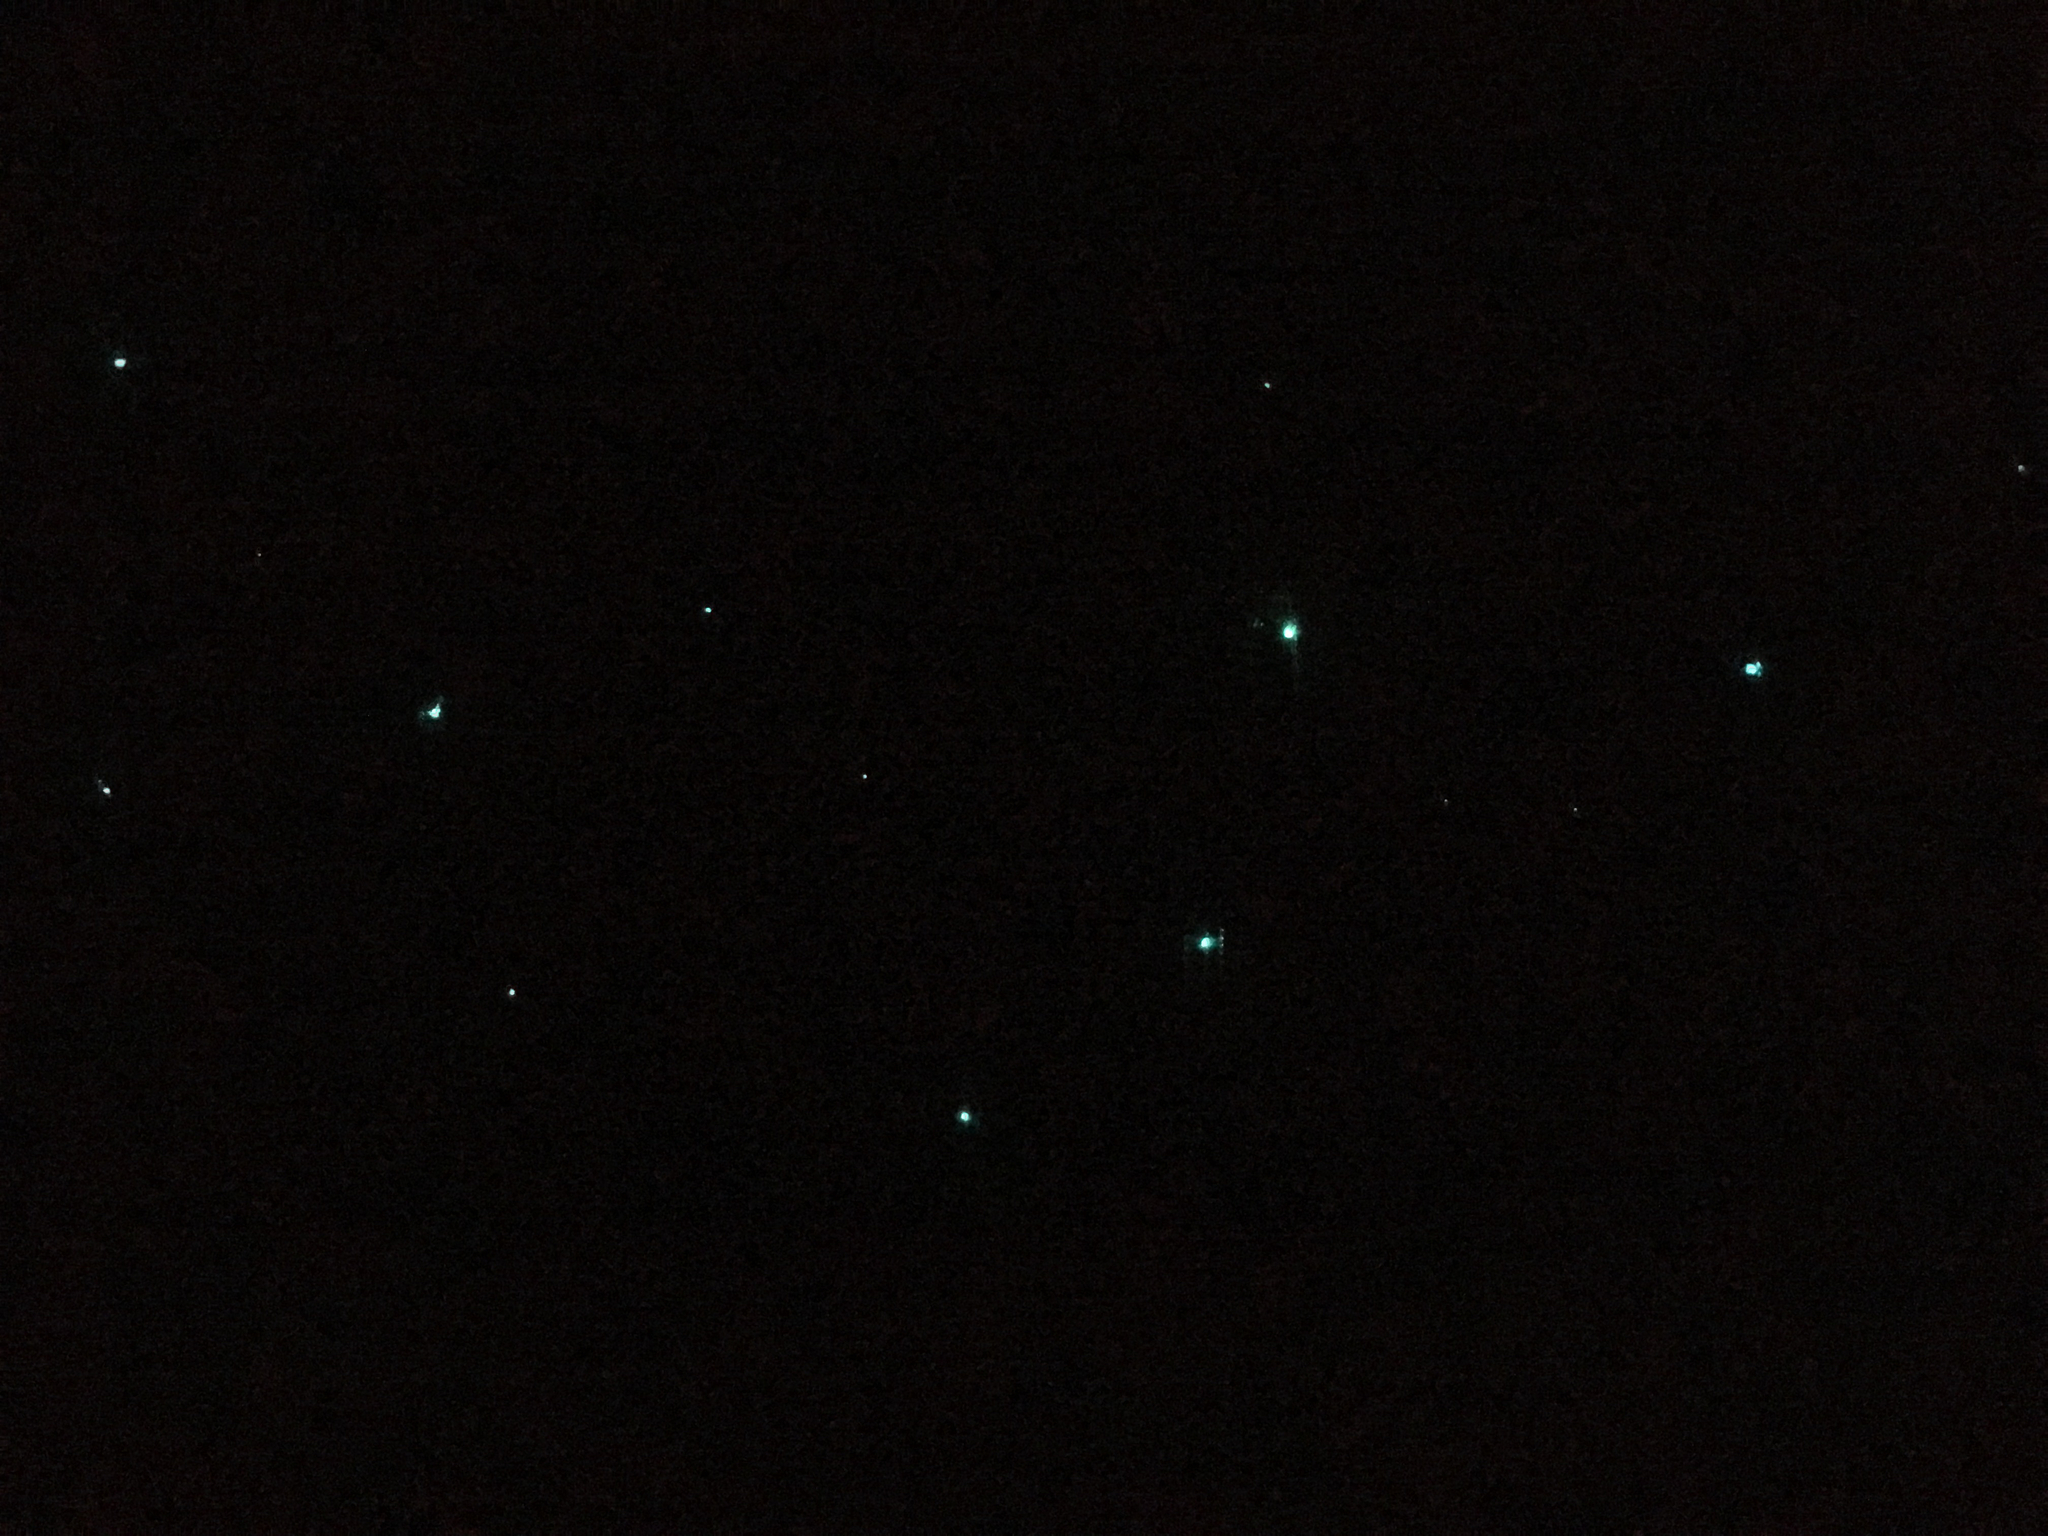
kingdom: Animalia
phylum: Arthropoda
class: Insecta
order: Diptera
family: Keroplatidae
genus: Arachnocampa
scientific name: Arachnocampa luminosa
